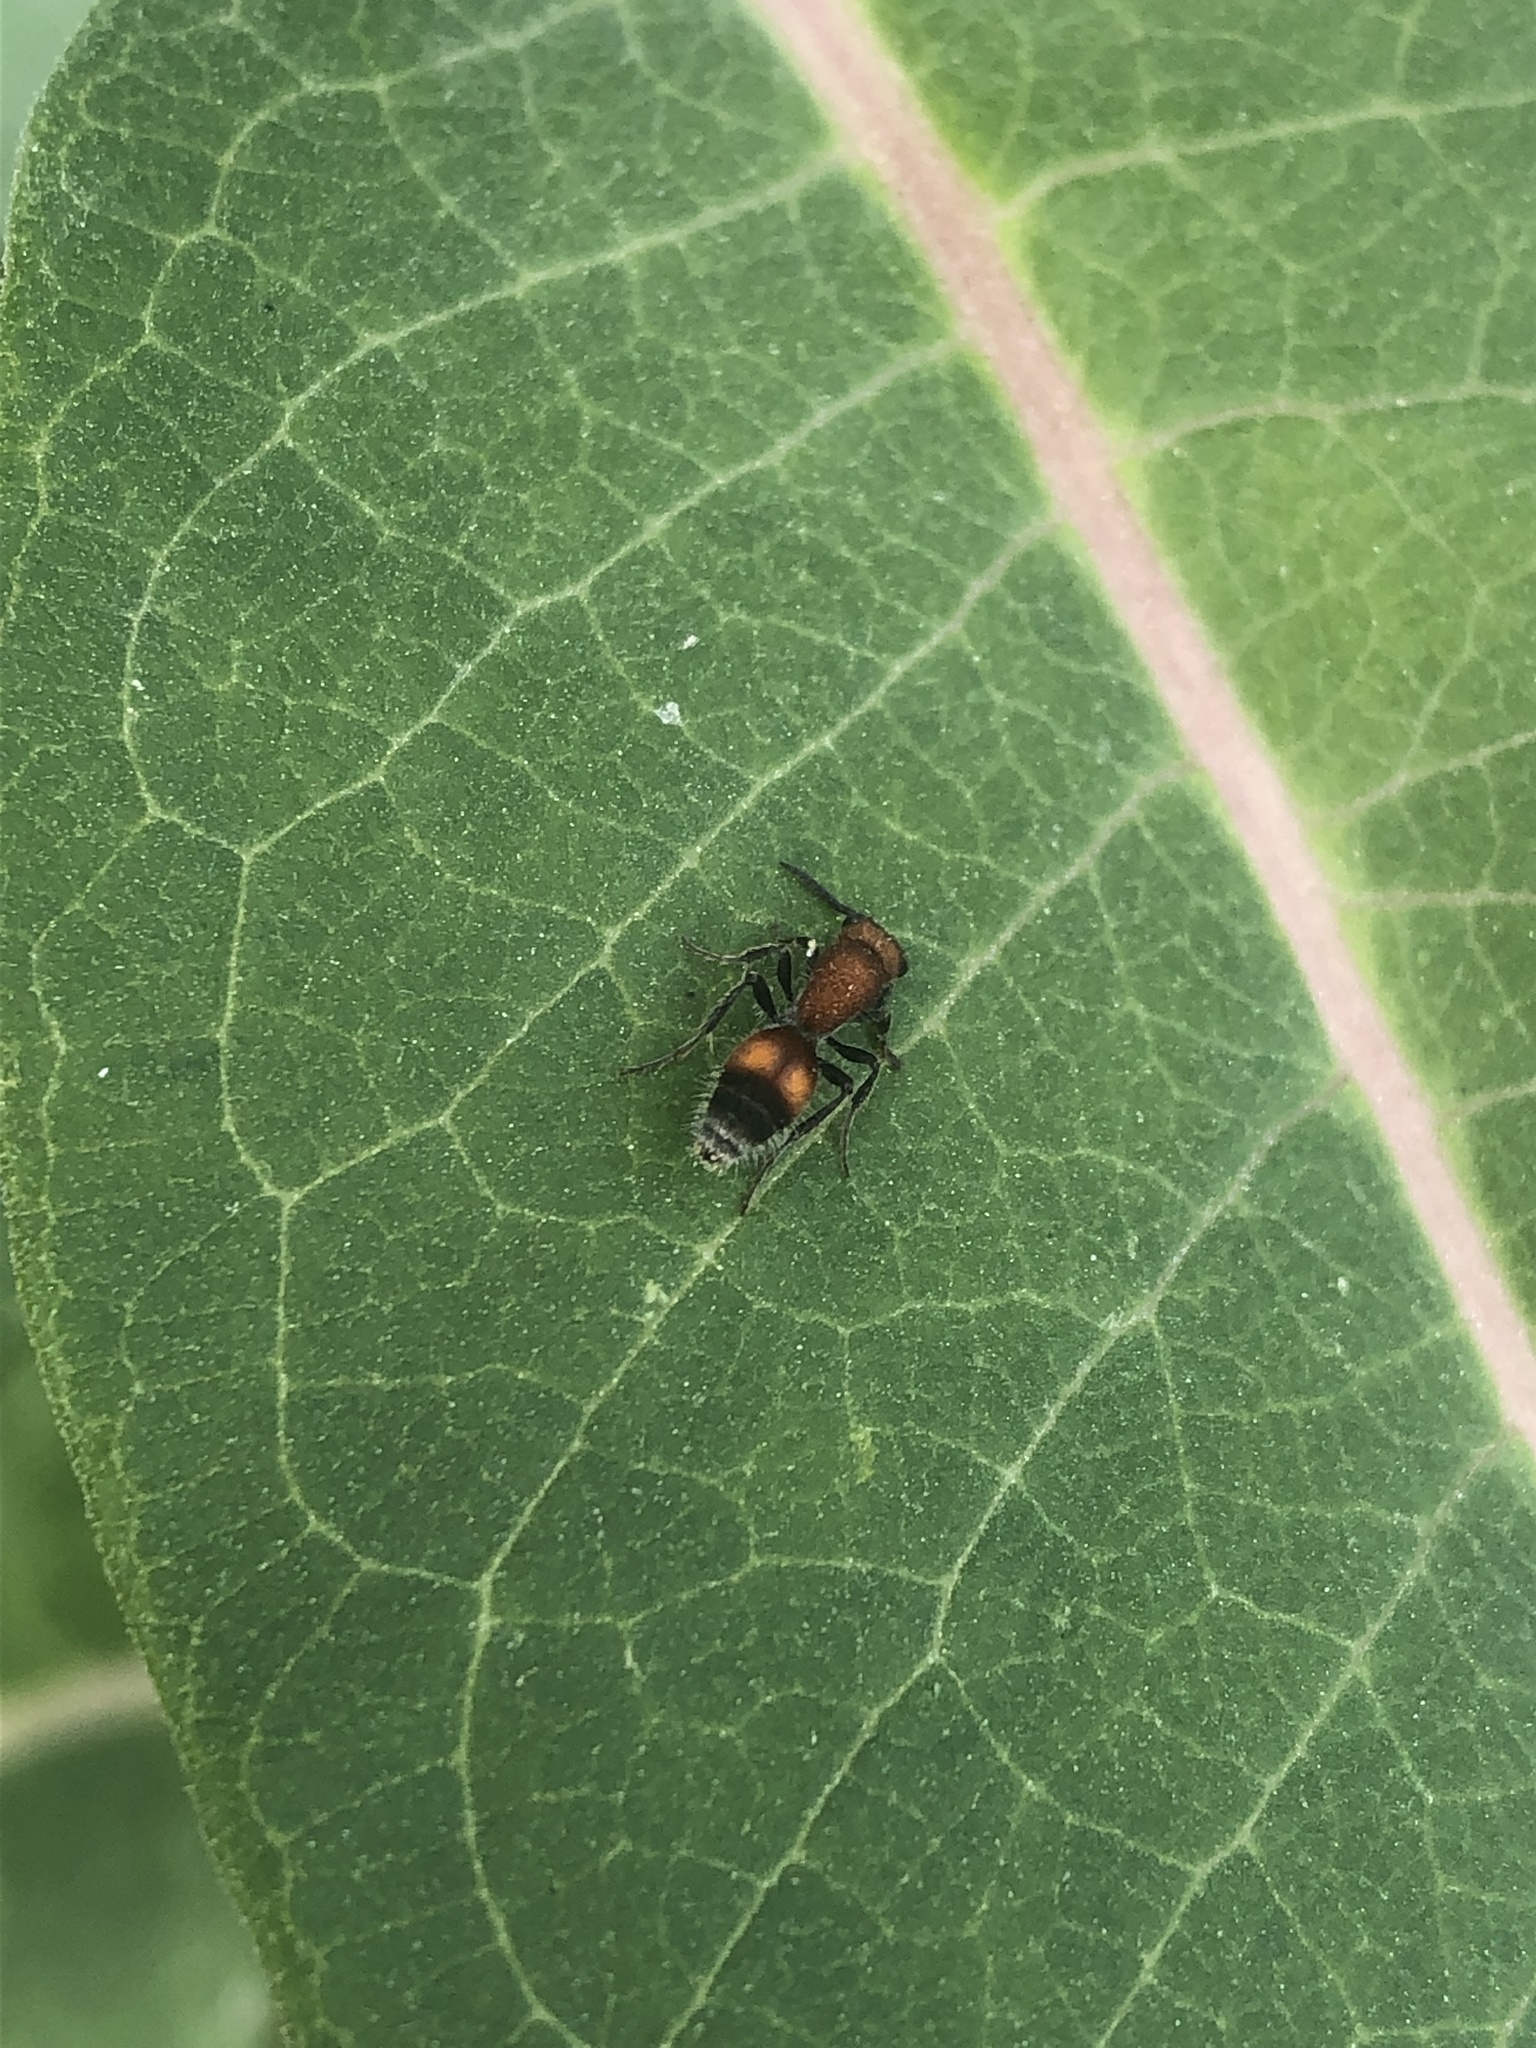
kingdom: Animalia
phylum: Arthropoda
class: Insecta
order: Hymenoptera
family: Mutillidae
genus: Dasymutilla
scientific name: Dasymutilla
